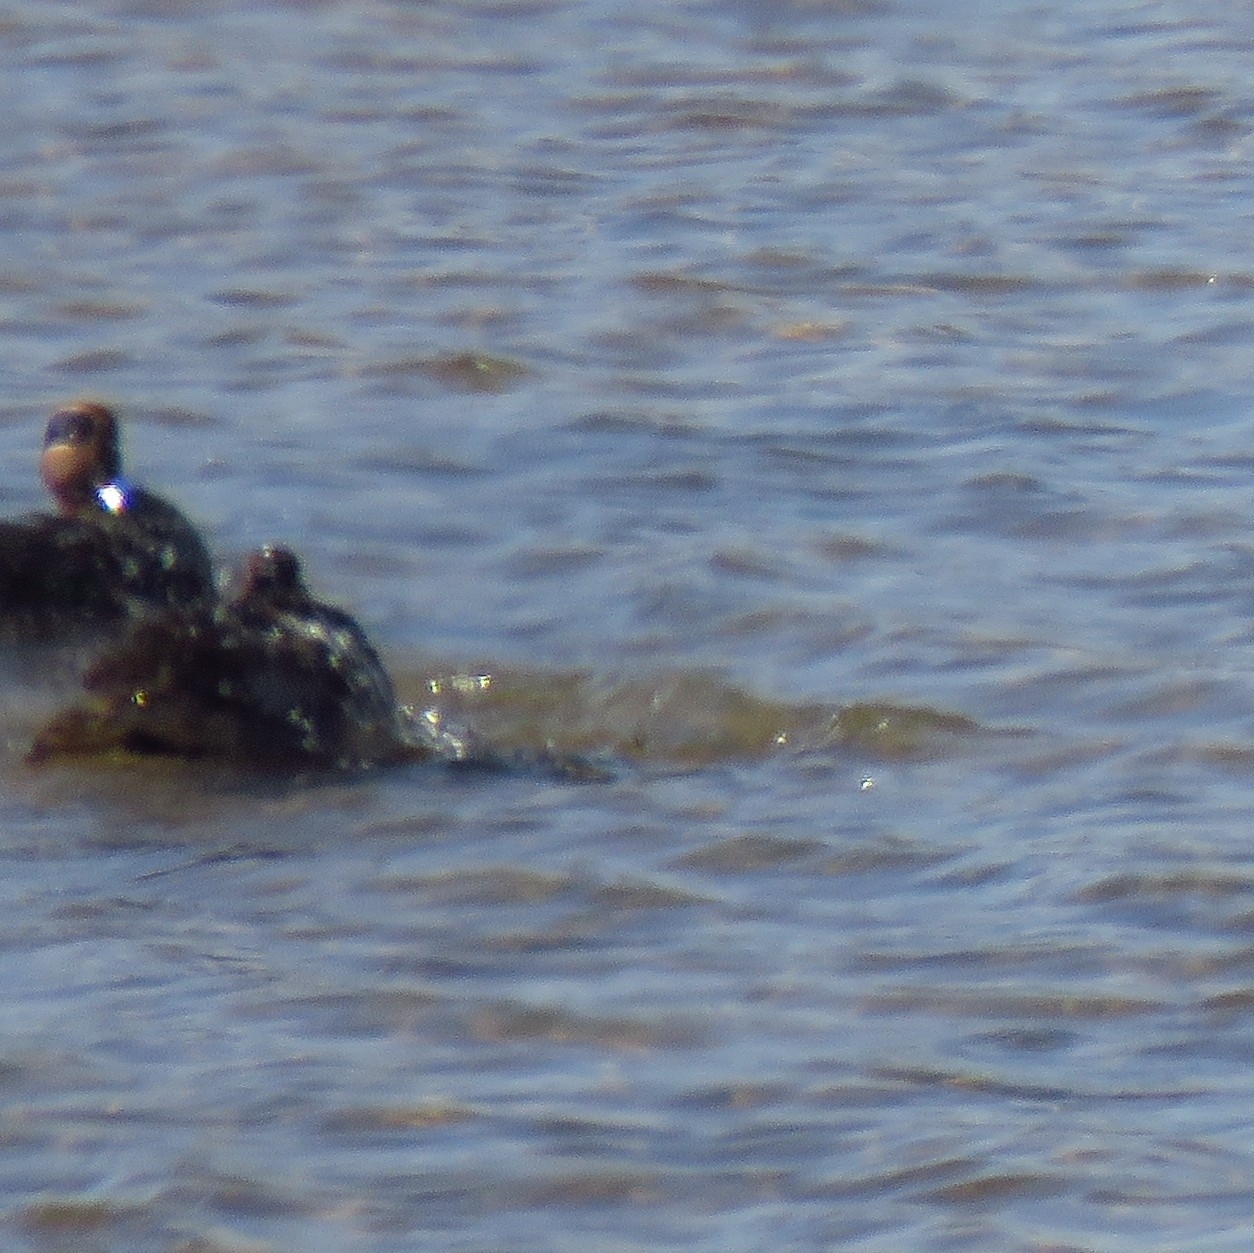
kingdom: Animalia
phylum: Chordata
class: Aves
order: Anseriformes
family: Anatidae
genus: Anas
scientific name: Anas crecca
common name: Eurasian teal
